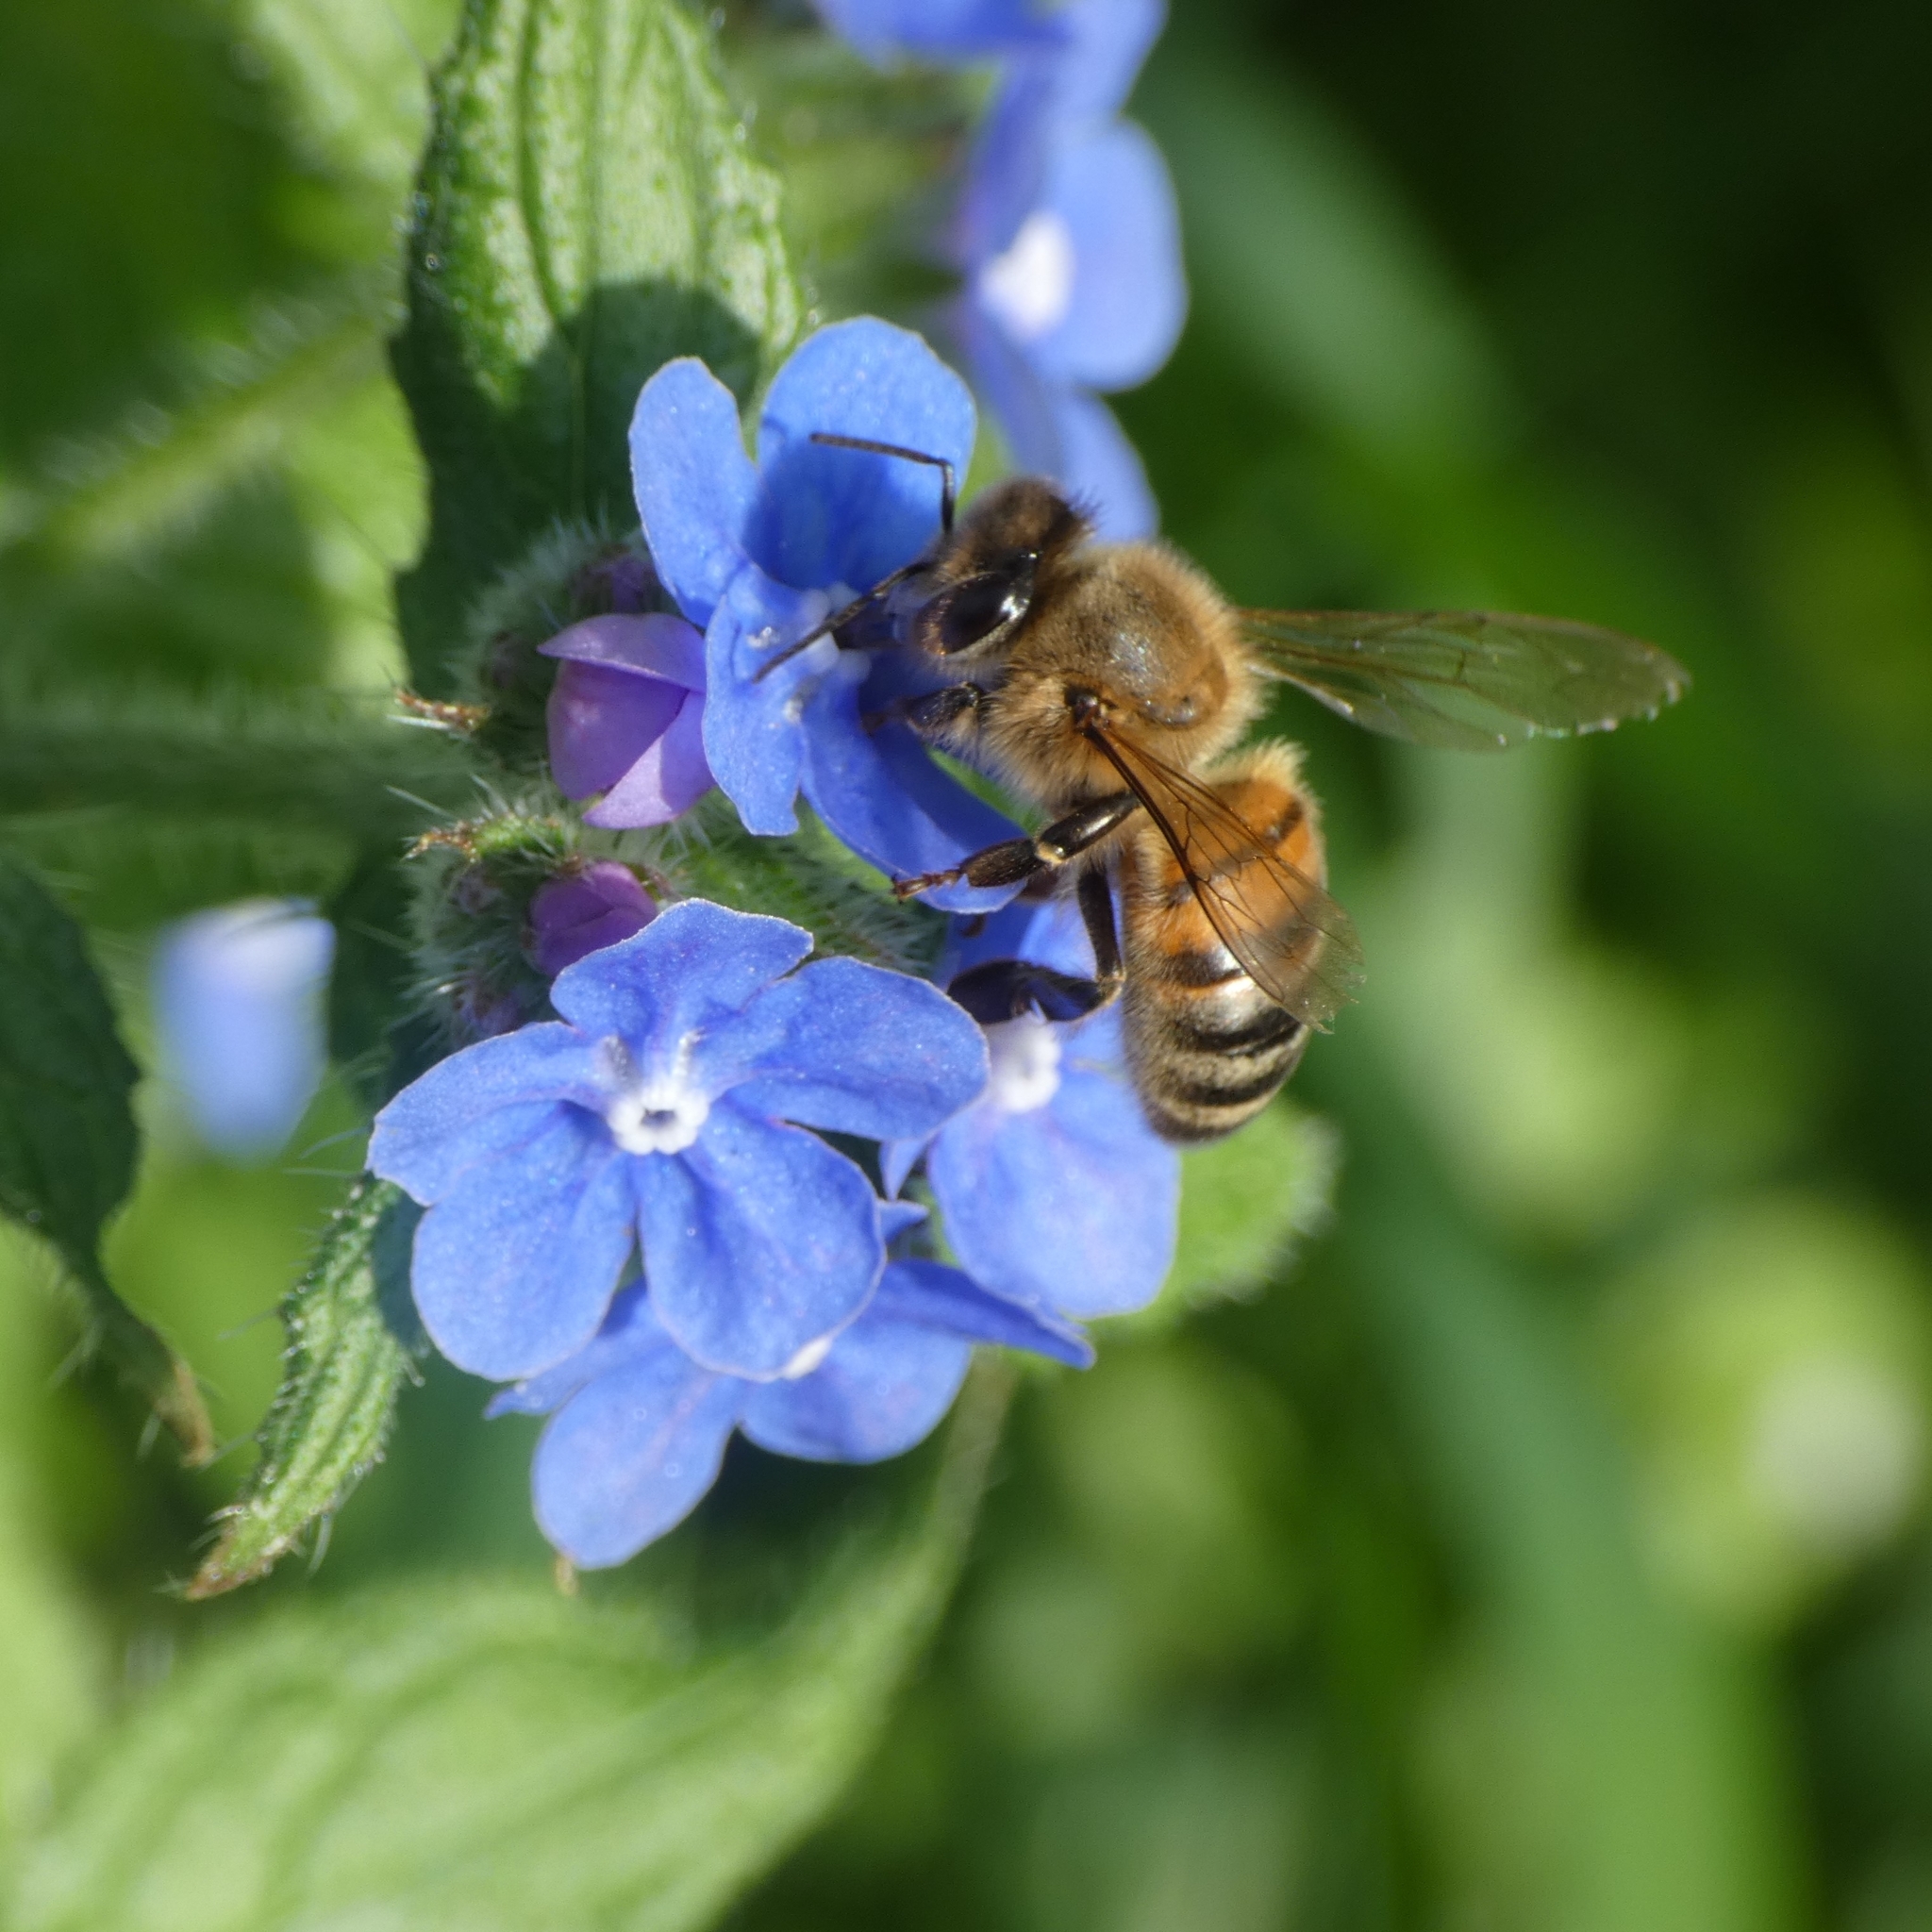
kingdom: Animalia
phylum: Arthropoda
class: Insecta
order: Hymenoptera
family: Apidae
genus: Apis
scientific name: Apis mellifera
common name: Honey bee
